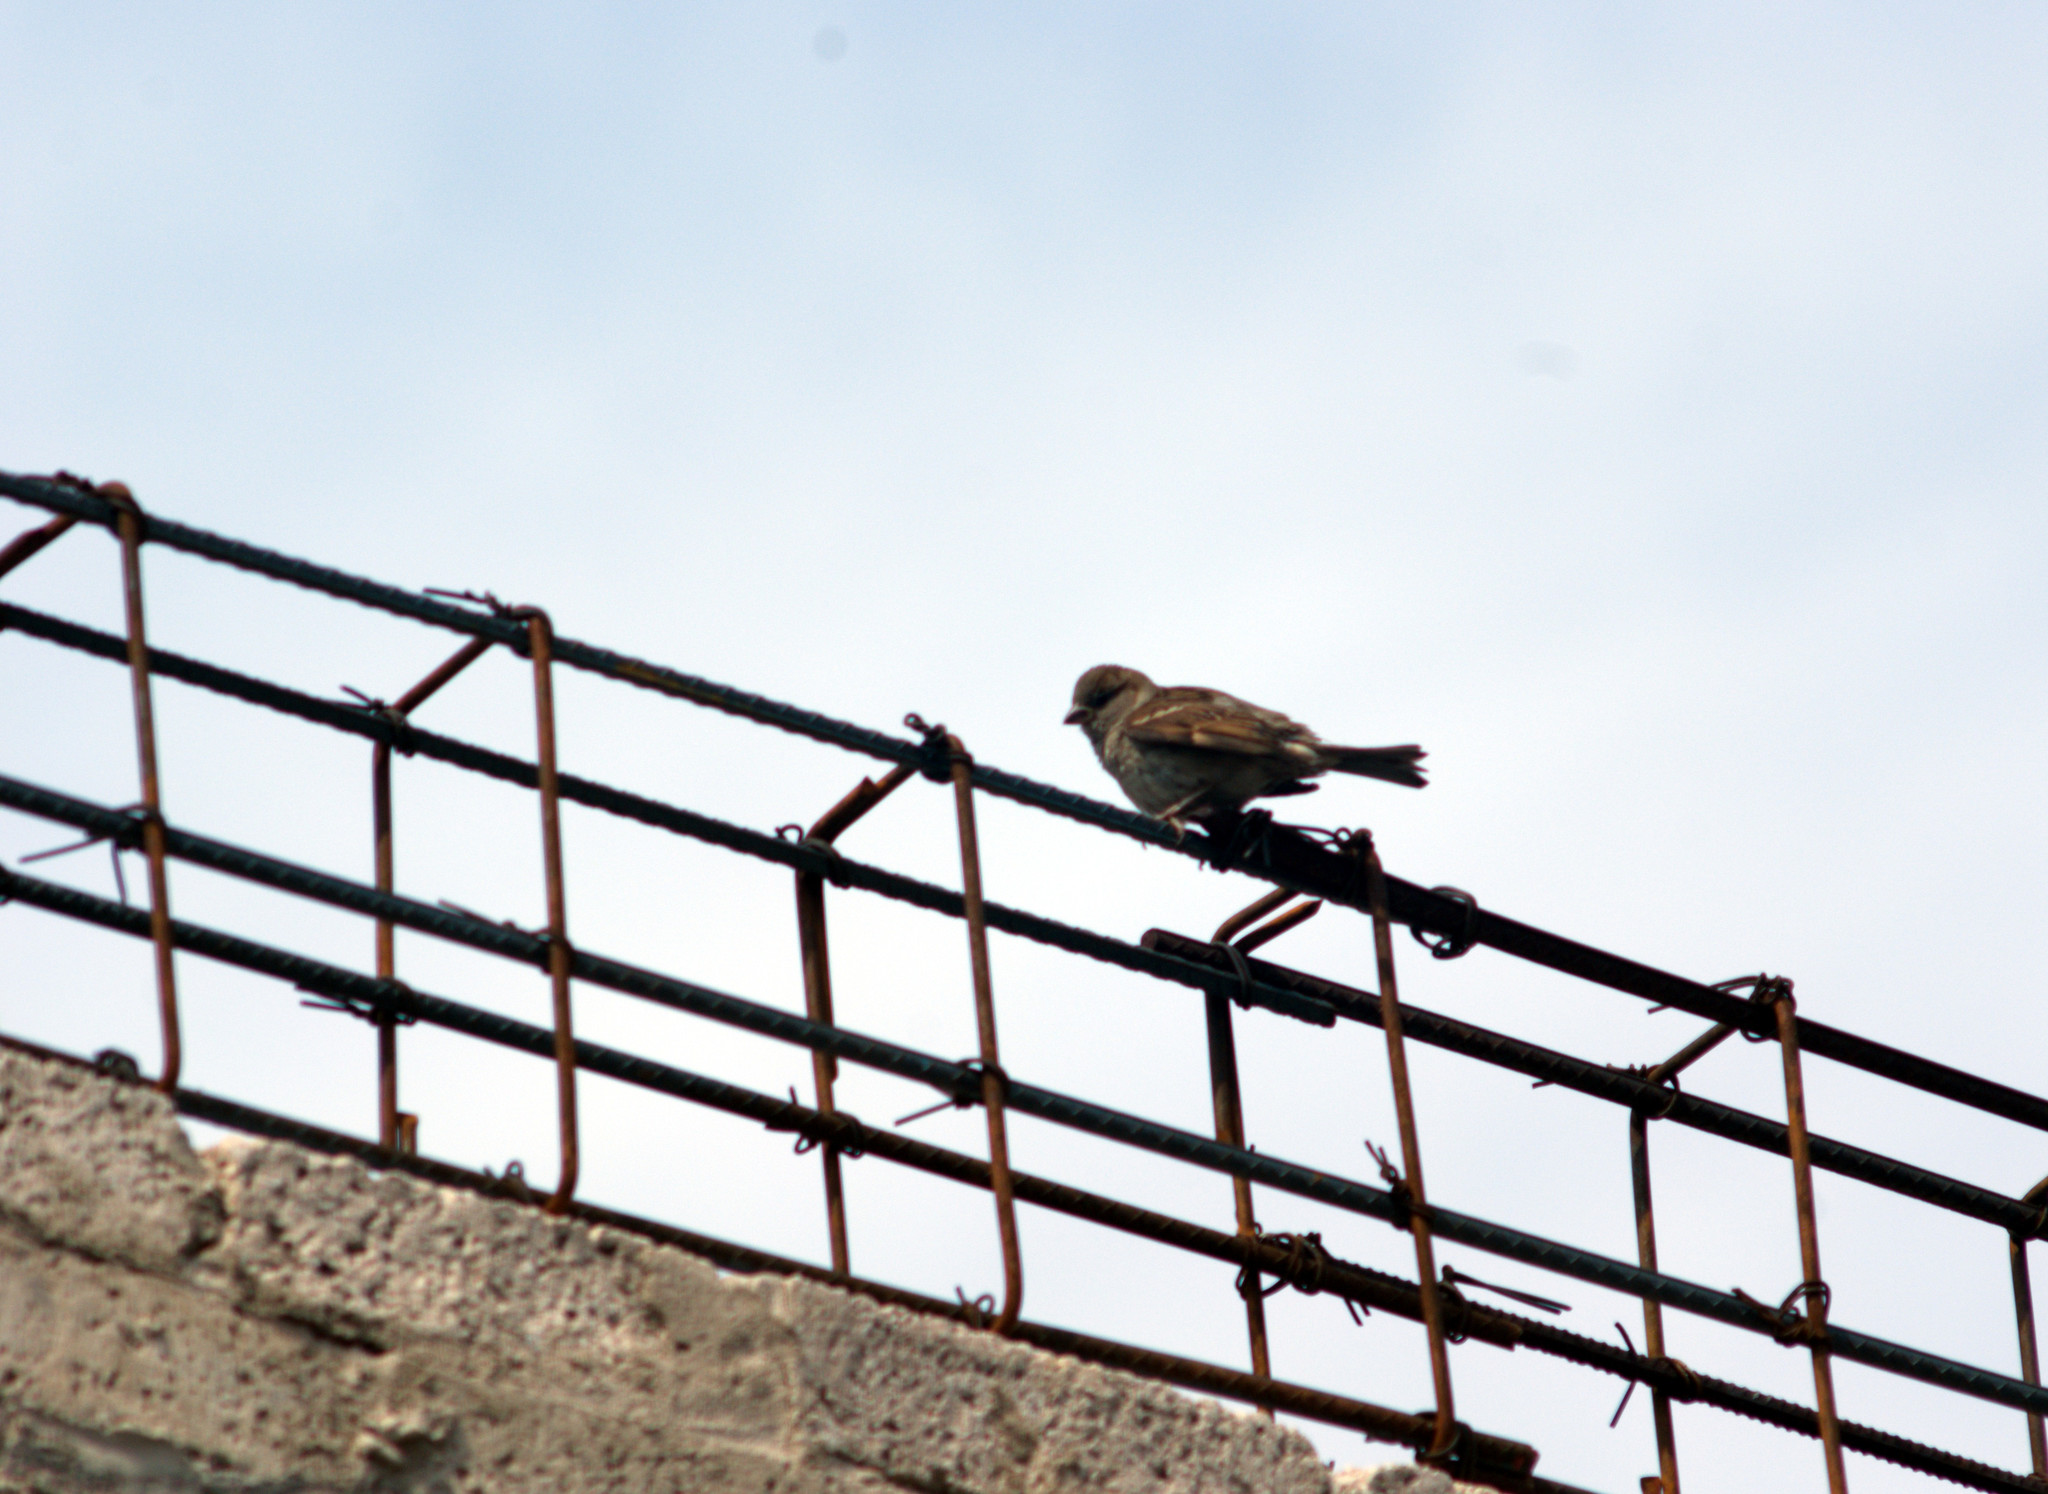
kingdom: Animalia
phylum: Chordata
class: Aves
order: Passeriformes
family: Passeridae
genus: Passer
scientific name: Passer domesticus
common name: House sparrow
